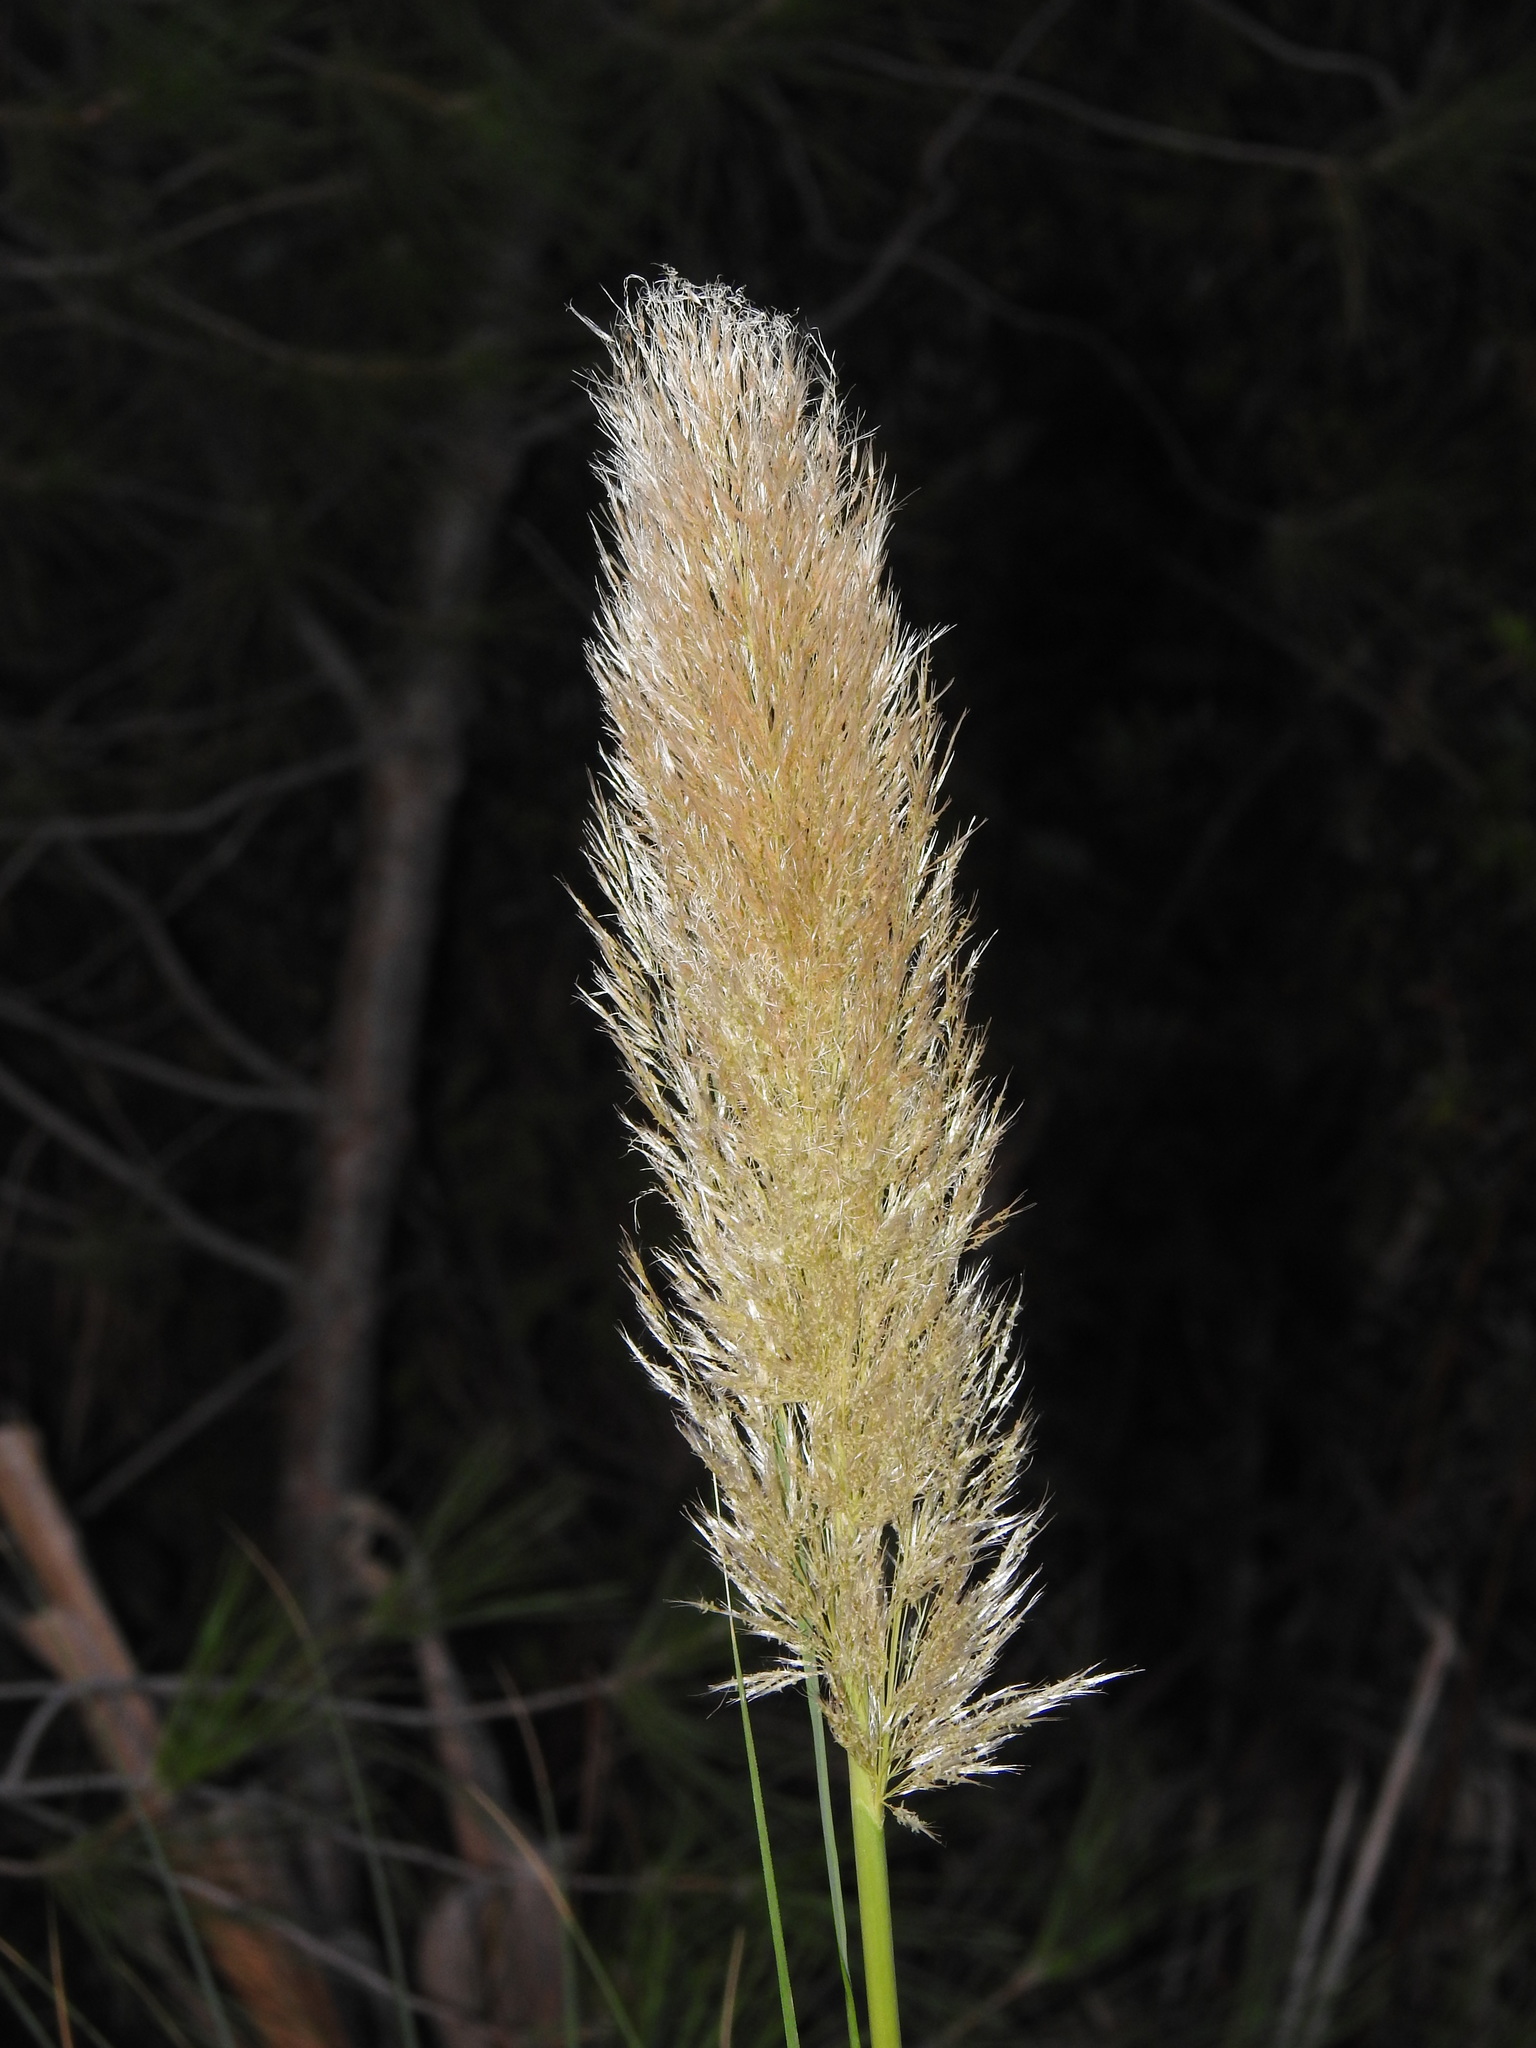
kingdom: Plantae
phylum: Tracheophyta
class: Liliopsida
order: Poales
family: Poaceae
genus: Cortaderia
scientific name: Cortaderia selloana
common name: Uruguayan pampas grass
